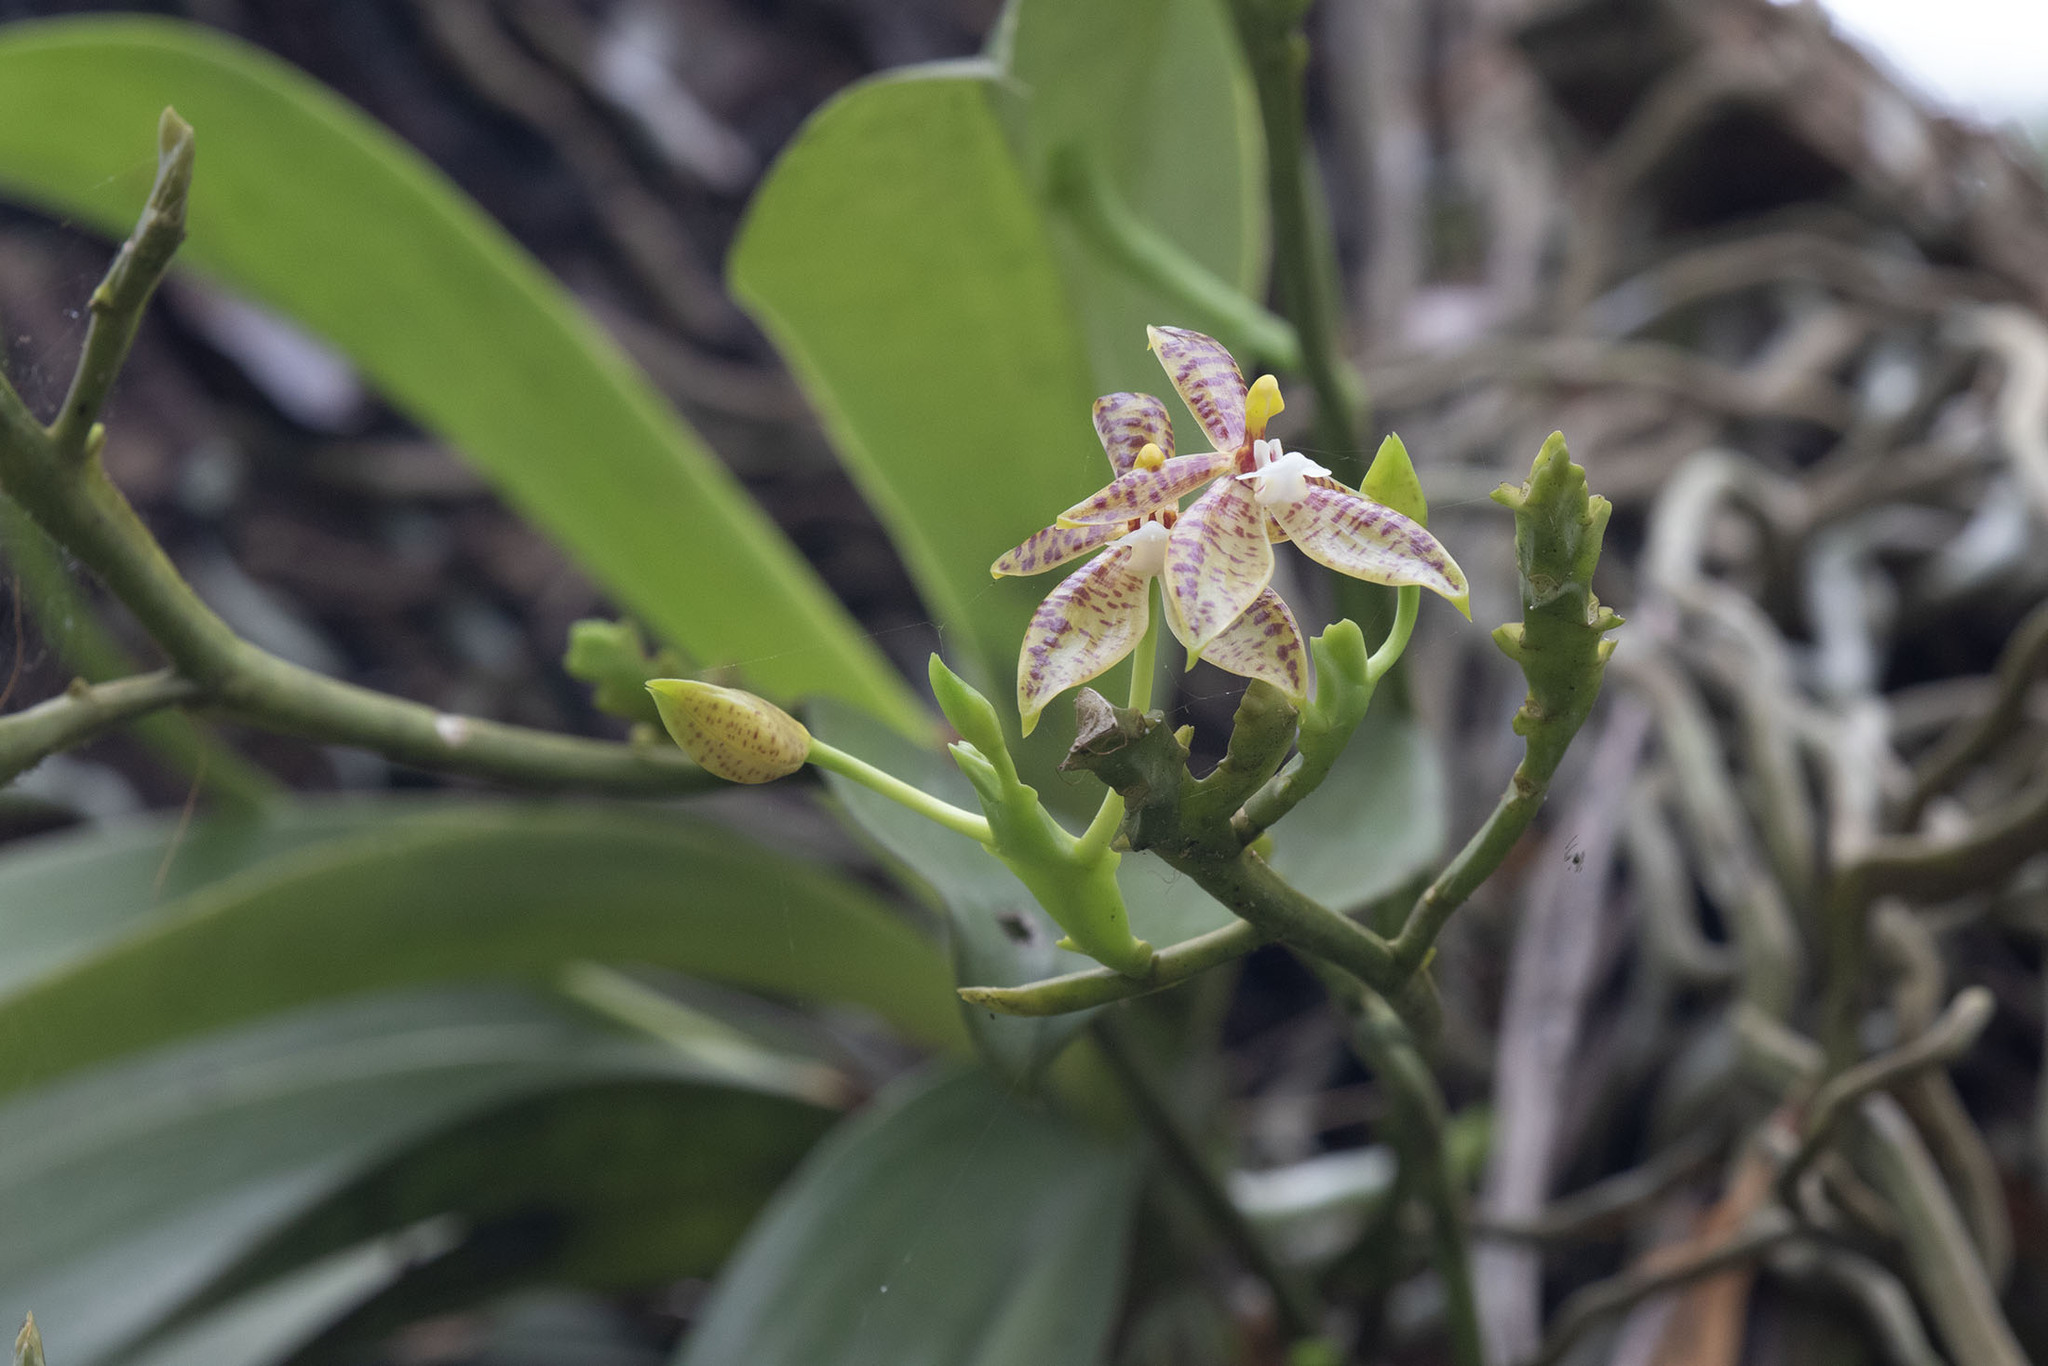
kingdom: Plantae
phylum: Tracheophyta
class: Liliopsida
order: Asparagales
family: Orchidaceae
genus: Phalaenopsis
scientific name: Phalaenopsis cornu-cervi
